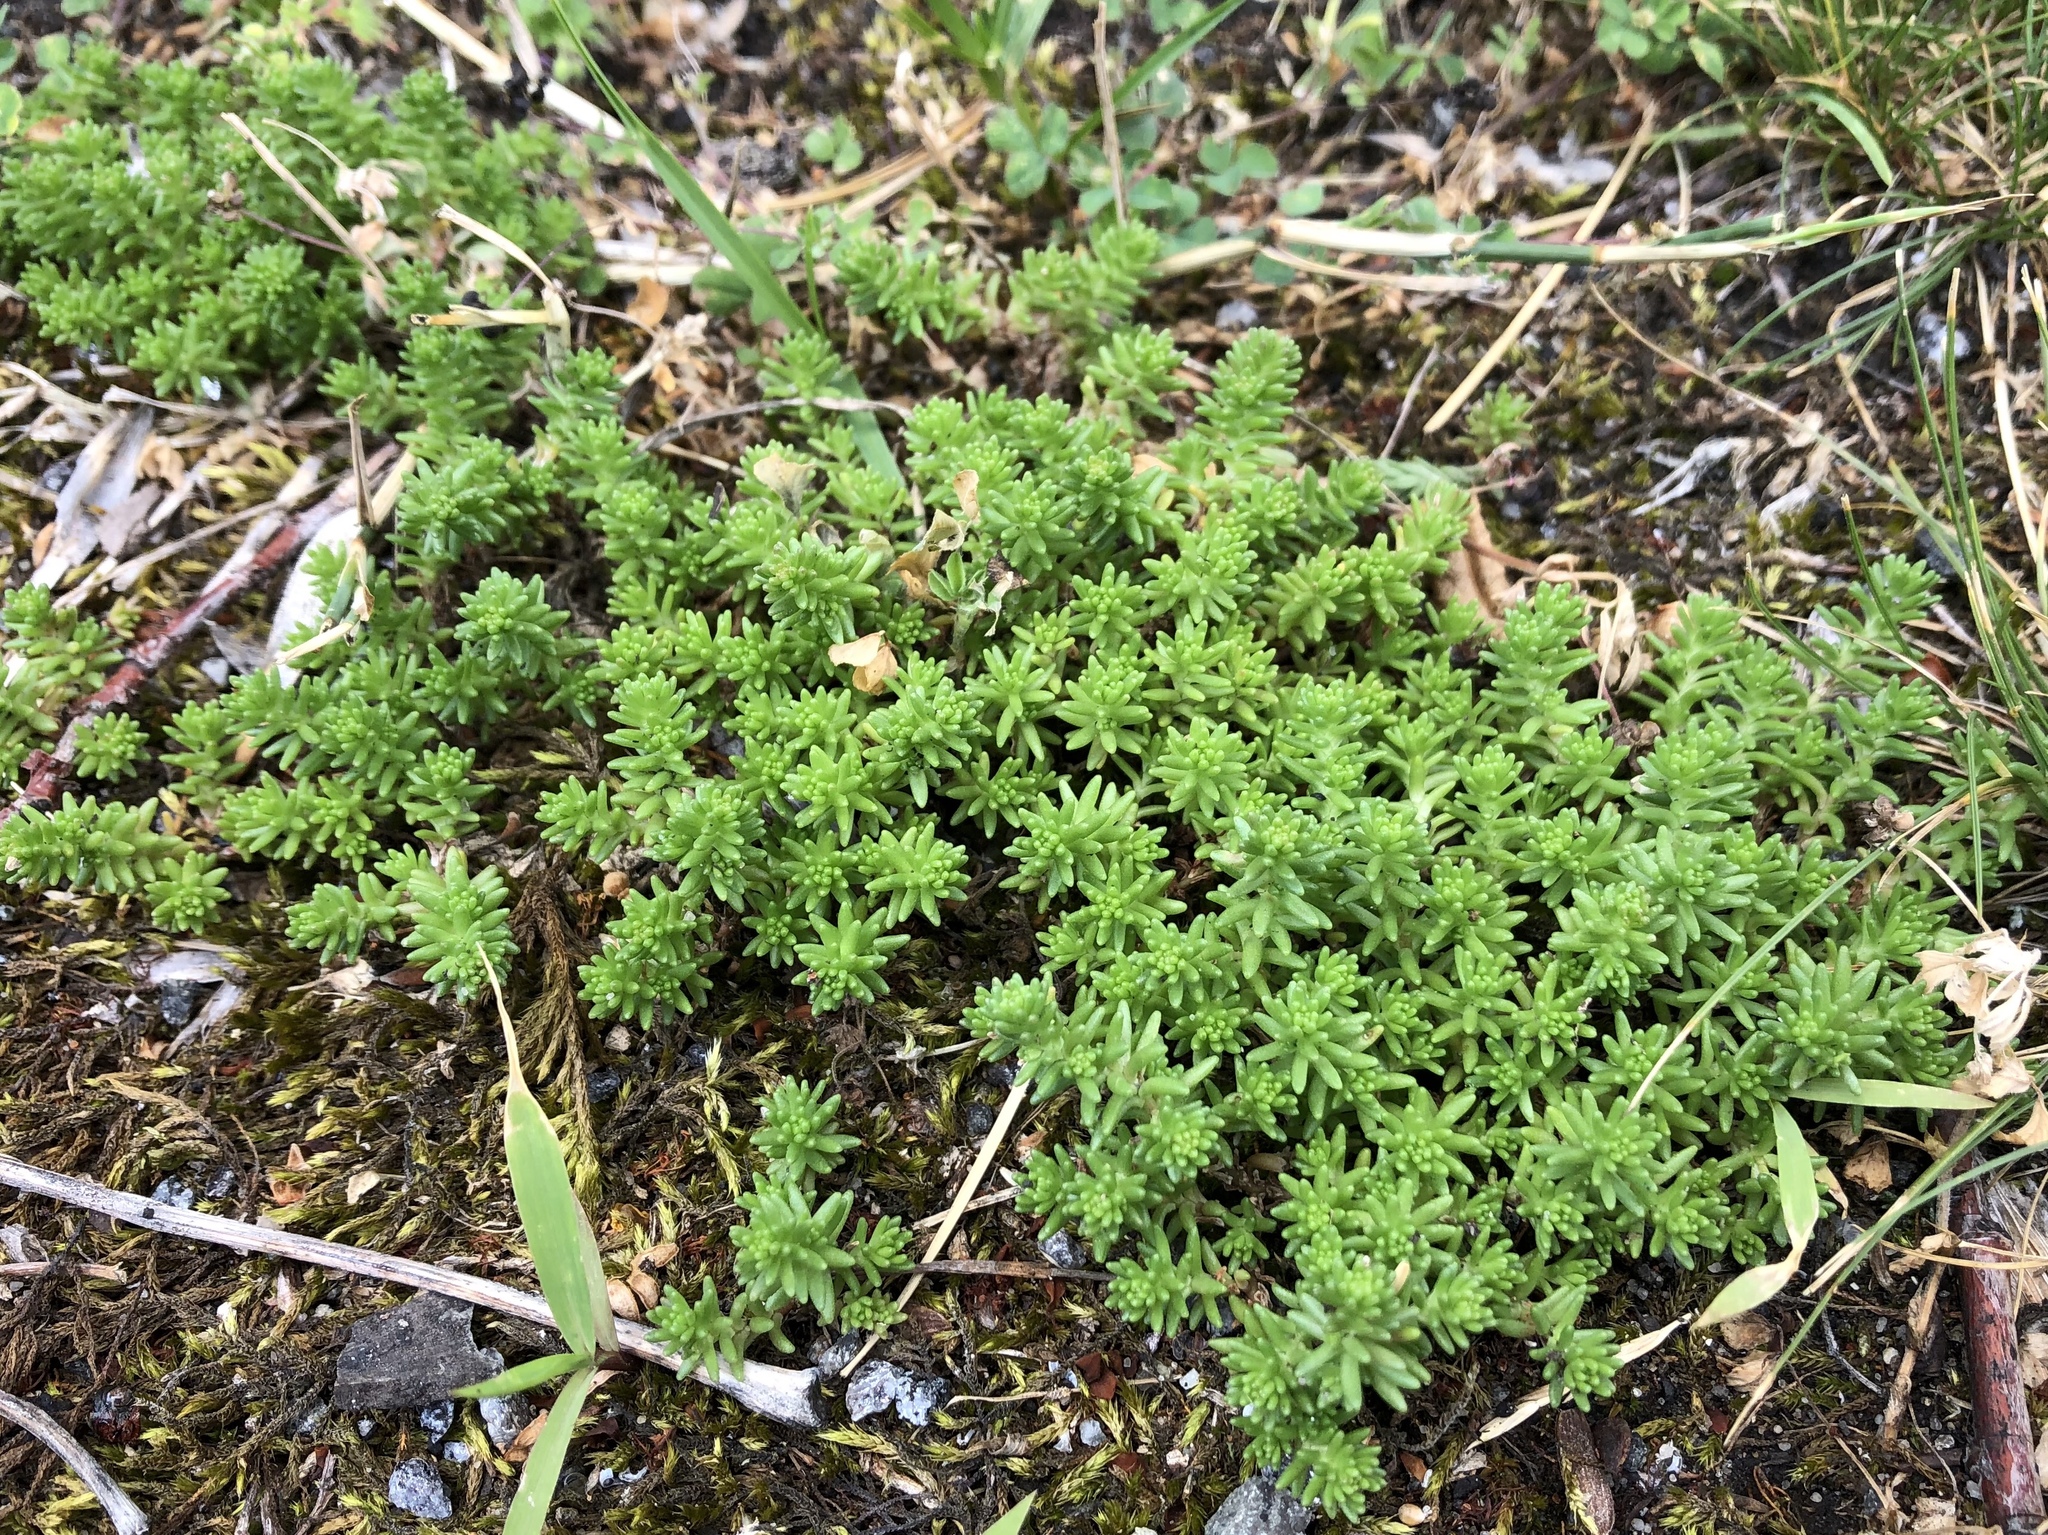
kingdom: Plantae
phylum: Tracheophyta
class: Magnoliopsida
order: Saxifragales
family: Crassulaceae
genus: Sedum
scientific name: Sedum sexangulare
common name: Tasteless stonecrop
